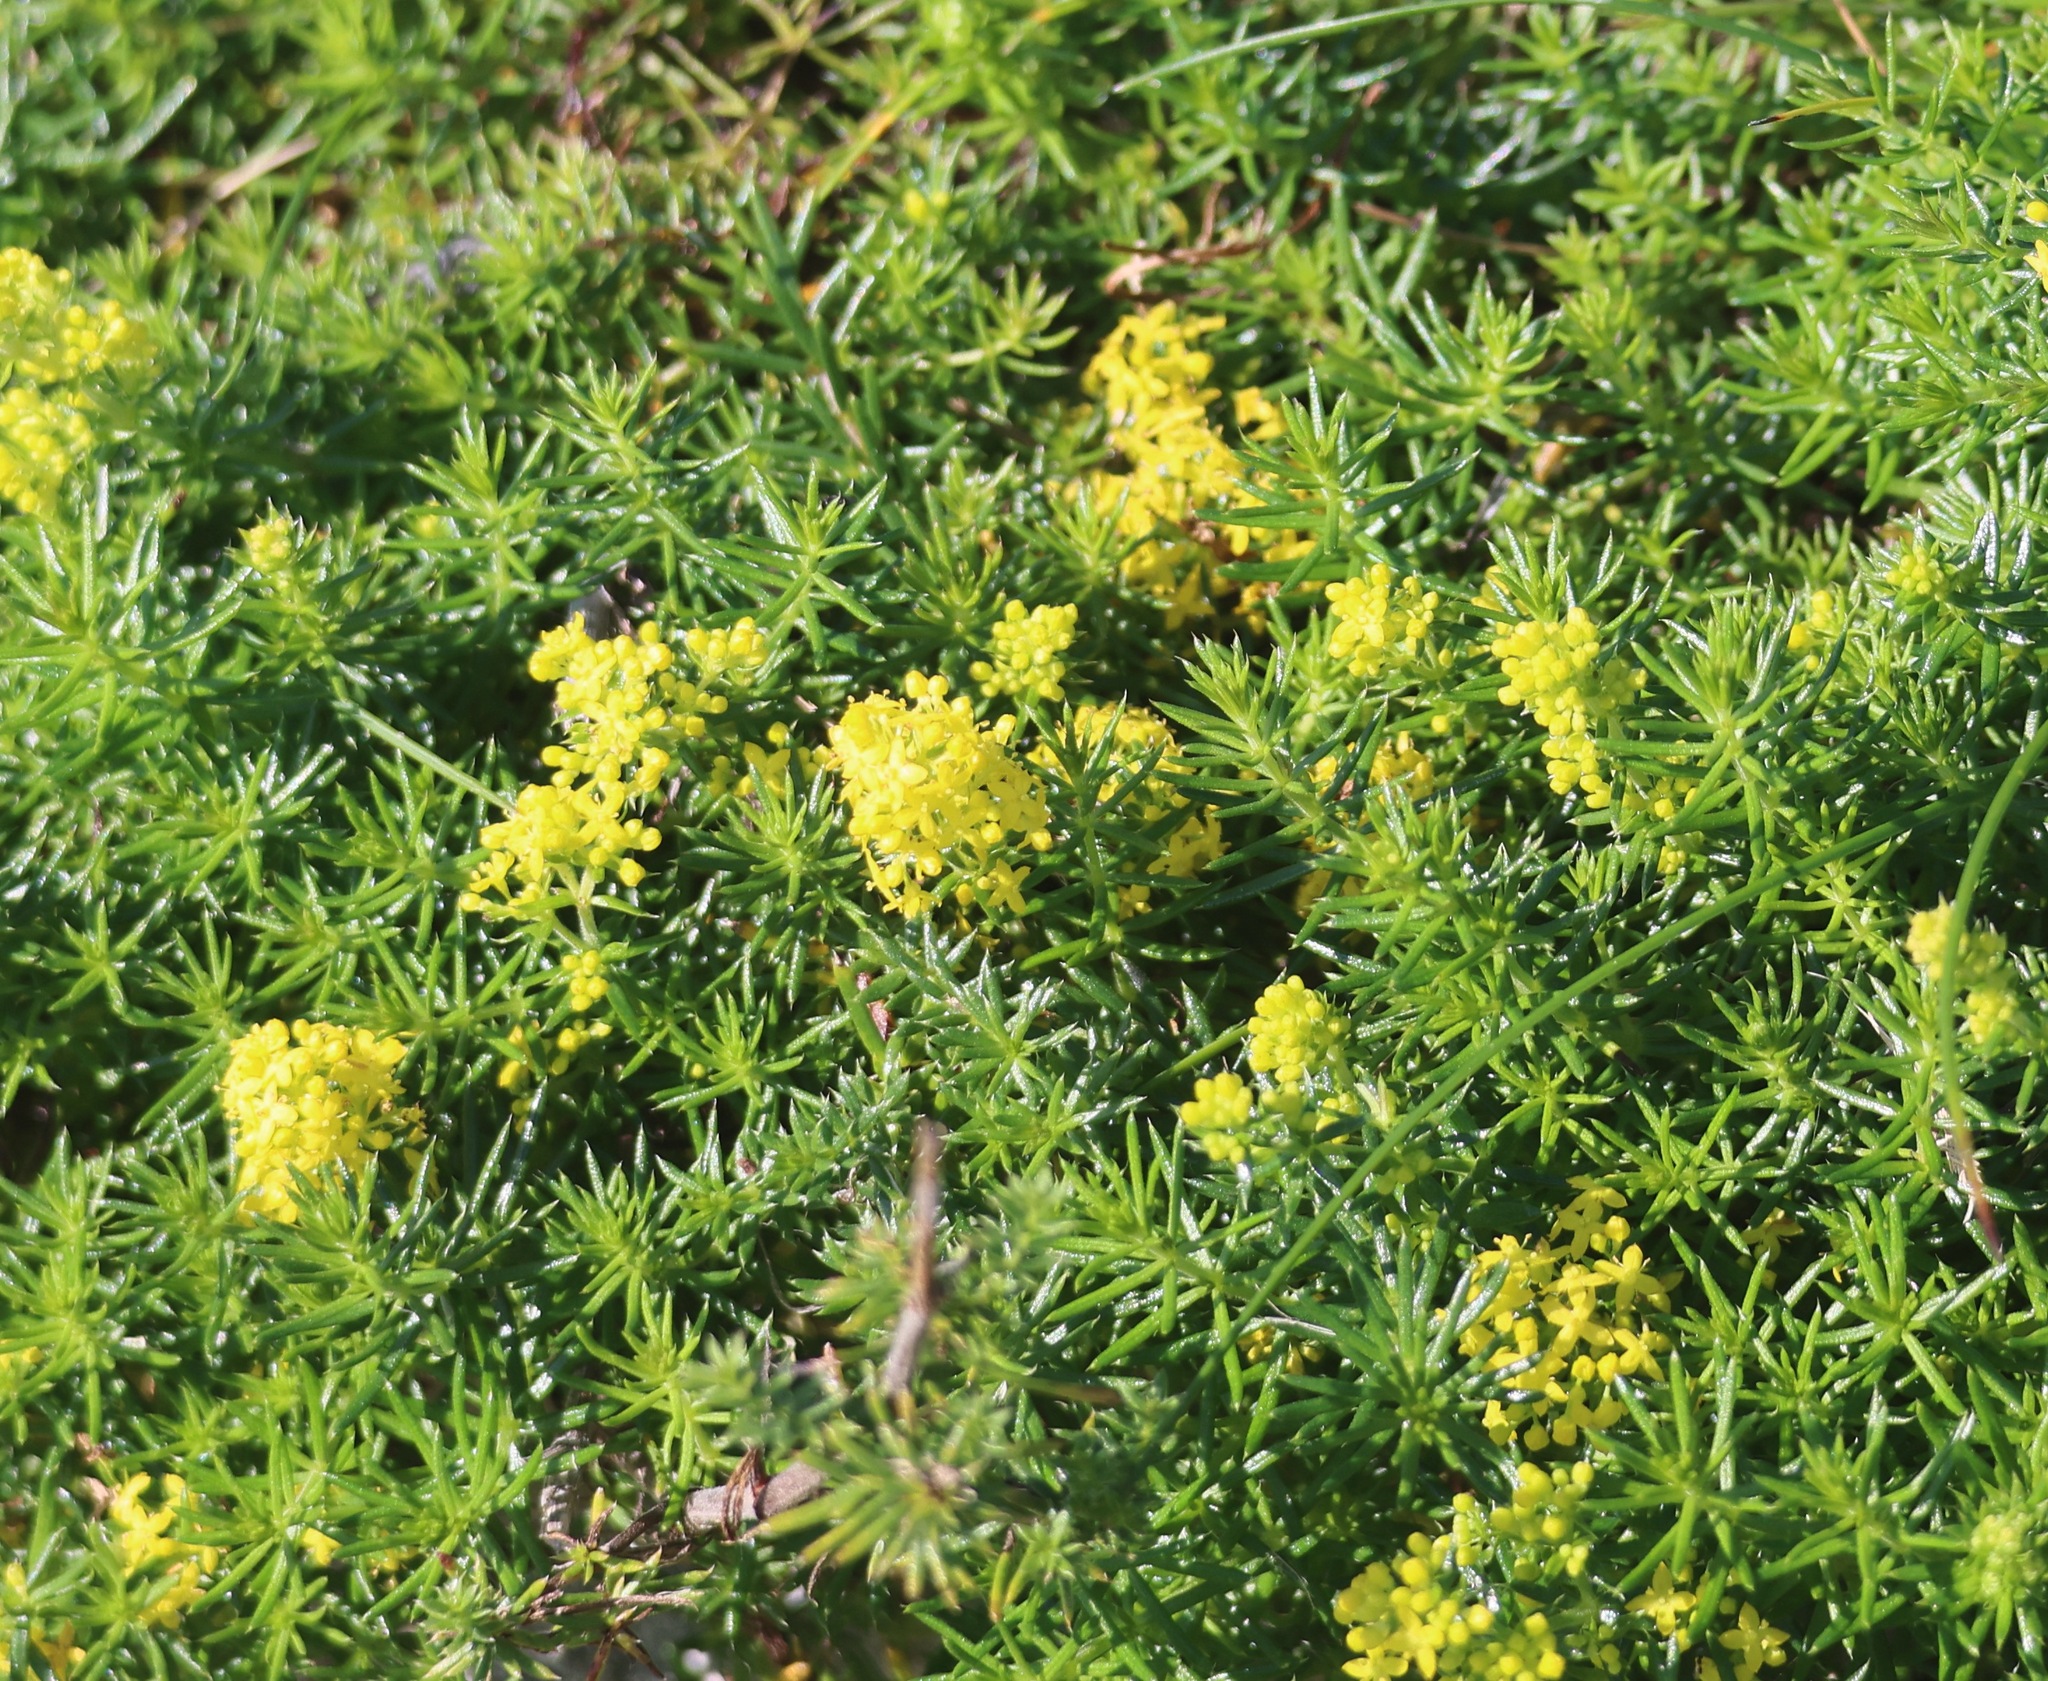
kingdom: Plantae
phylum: Tracheophyta
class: Magnoliopsida
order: Gentianales
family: Rubiaceae
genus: Galium
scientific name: Galium verum
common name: Lady's bedstraw
